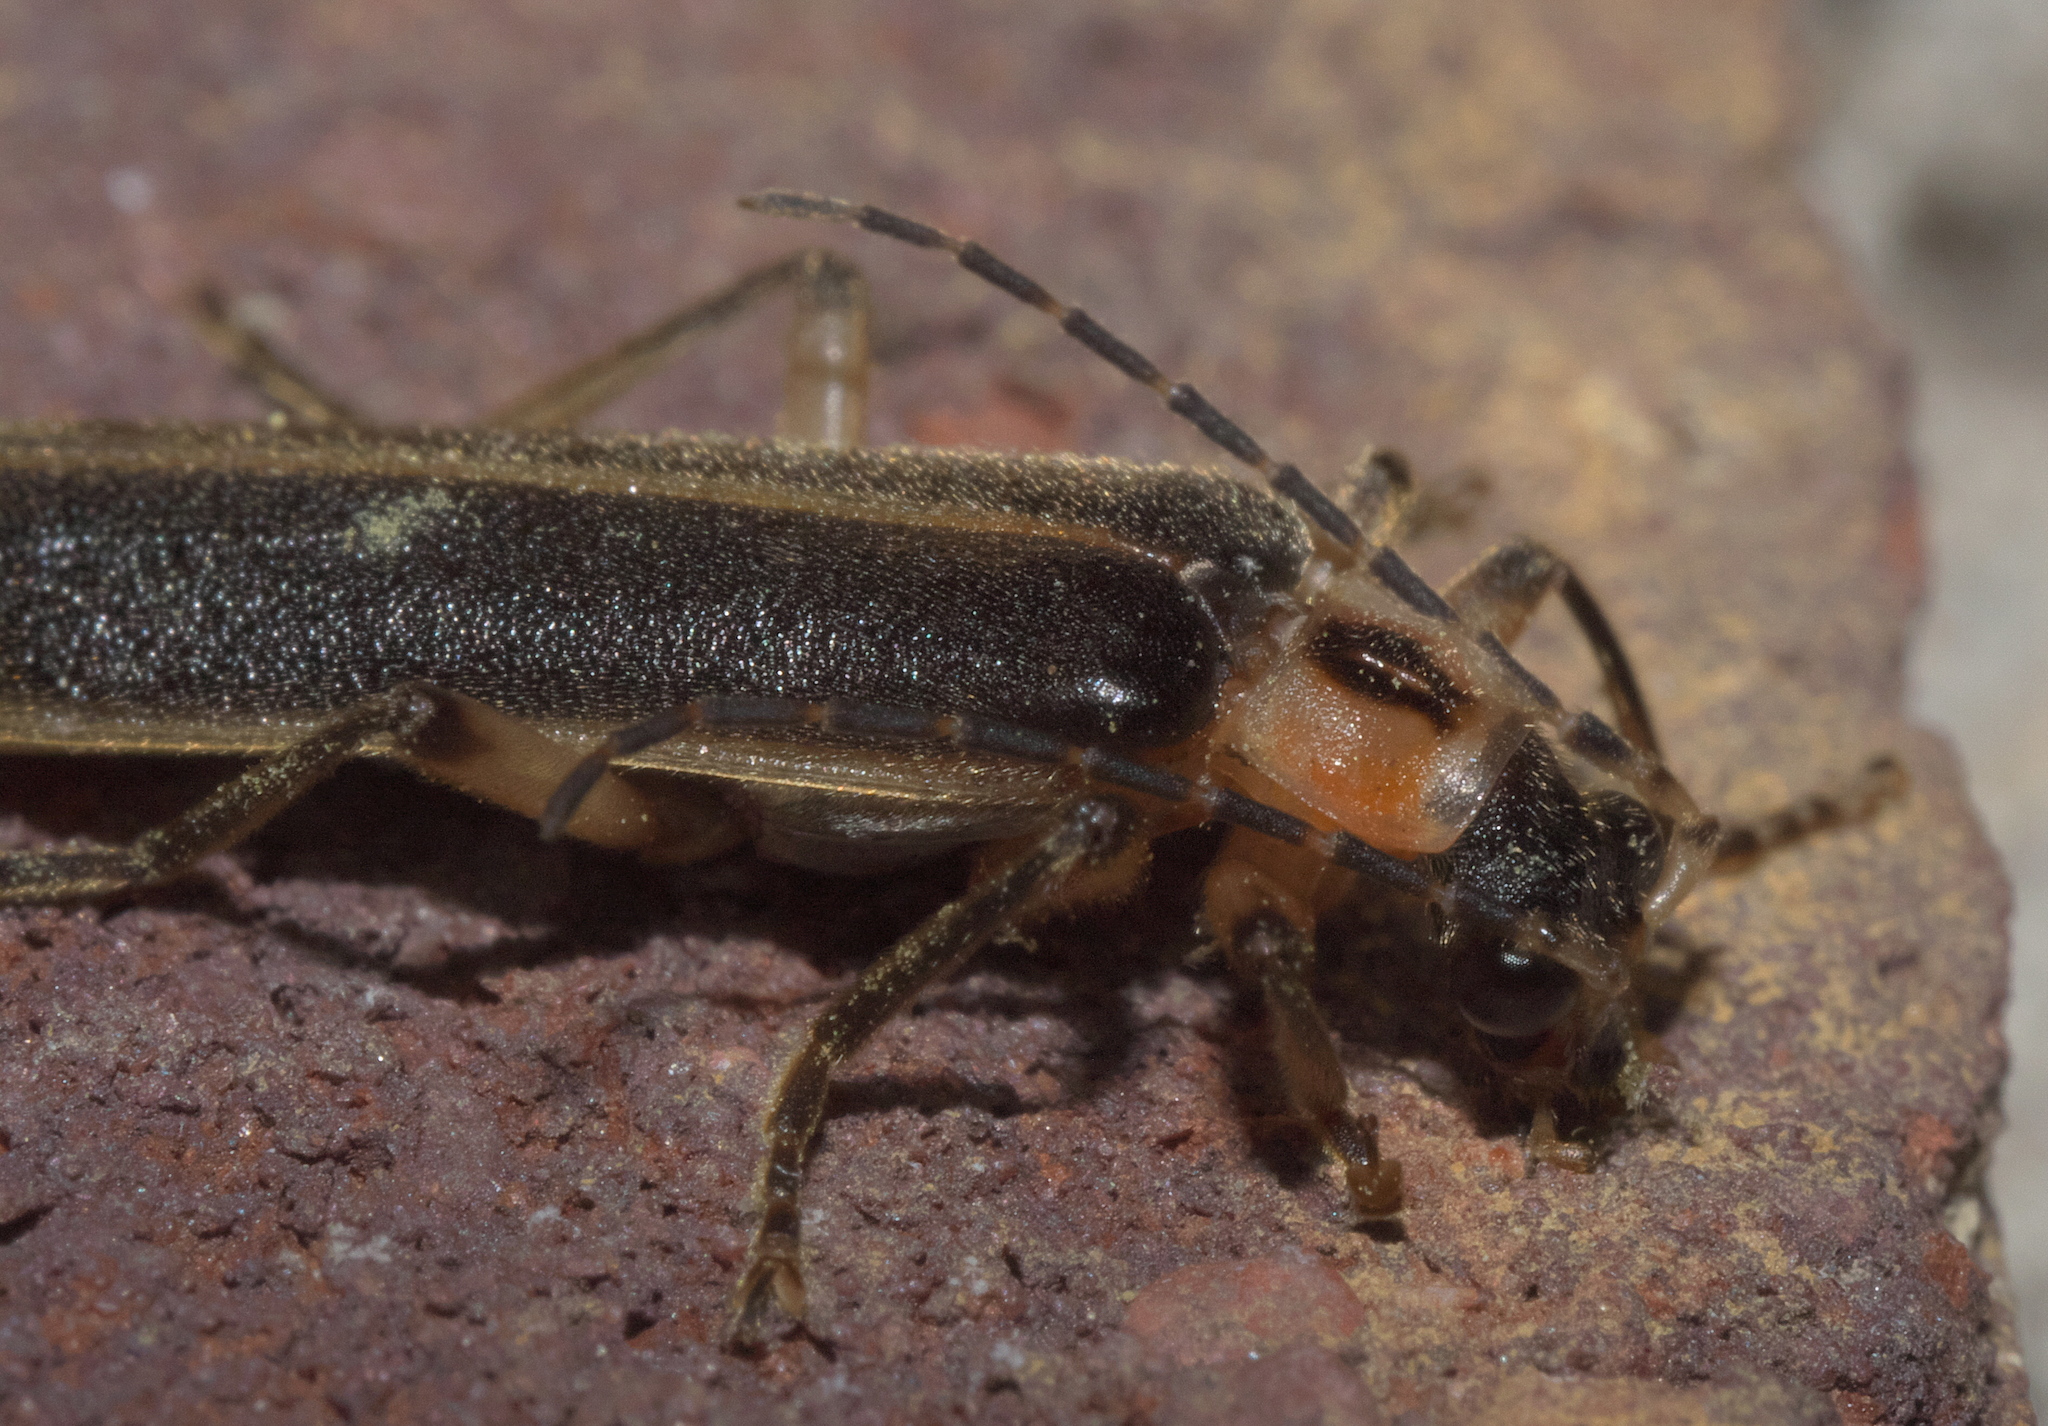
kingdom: Animalia
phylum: Arthropoda
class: Insecta
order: Coleoptera
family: Cantharidae
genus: Podabrus
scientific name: Podabrus basilaris
